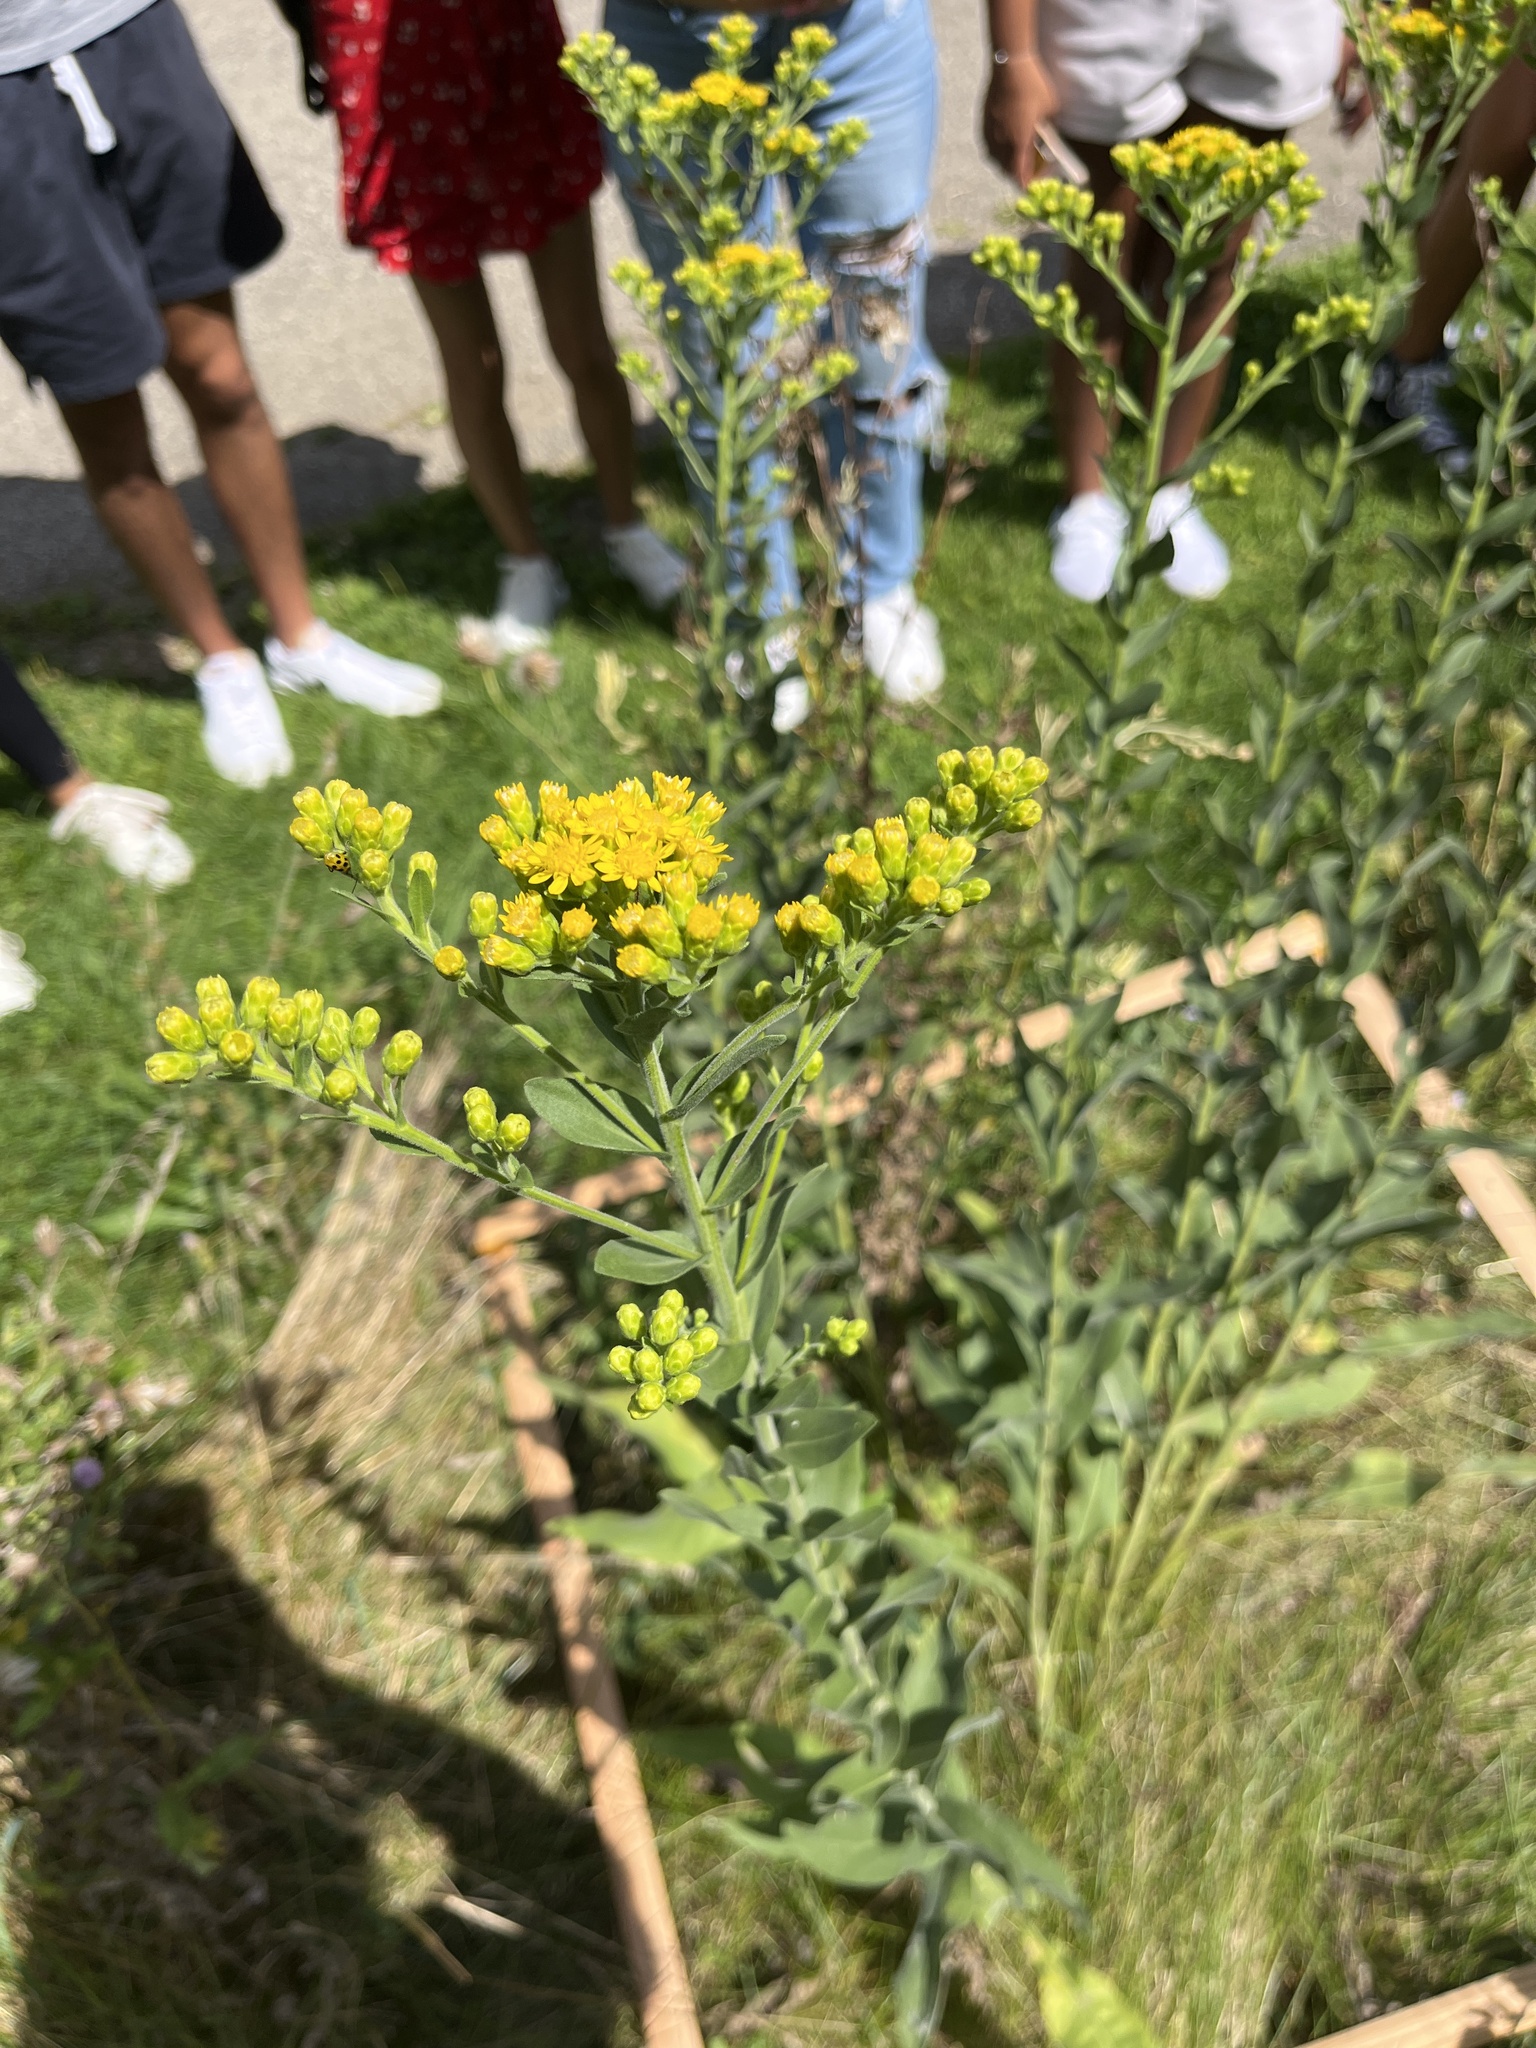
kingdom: Plantae
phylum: Tracheophyta
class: Magnoliopsida
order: Asterales
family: Asteraceae
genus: Solidago
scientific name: Solidago rigida
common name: Rigid goldenrod
